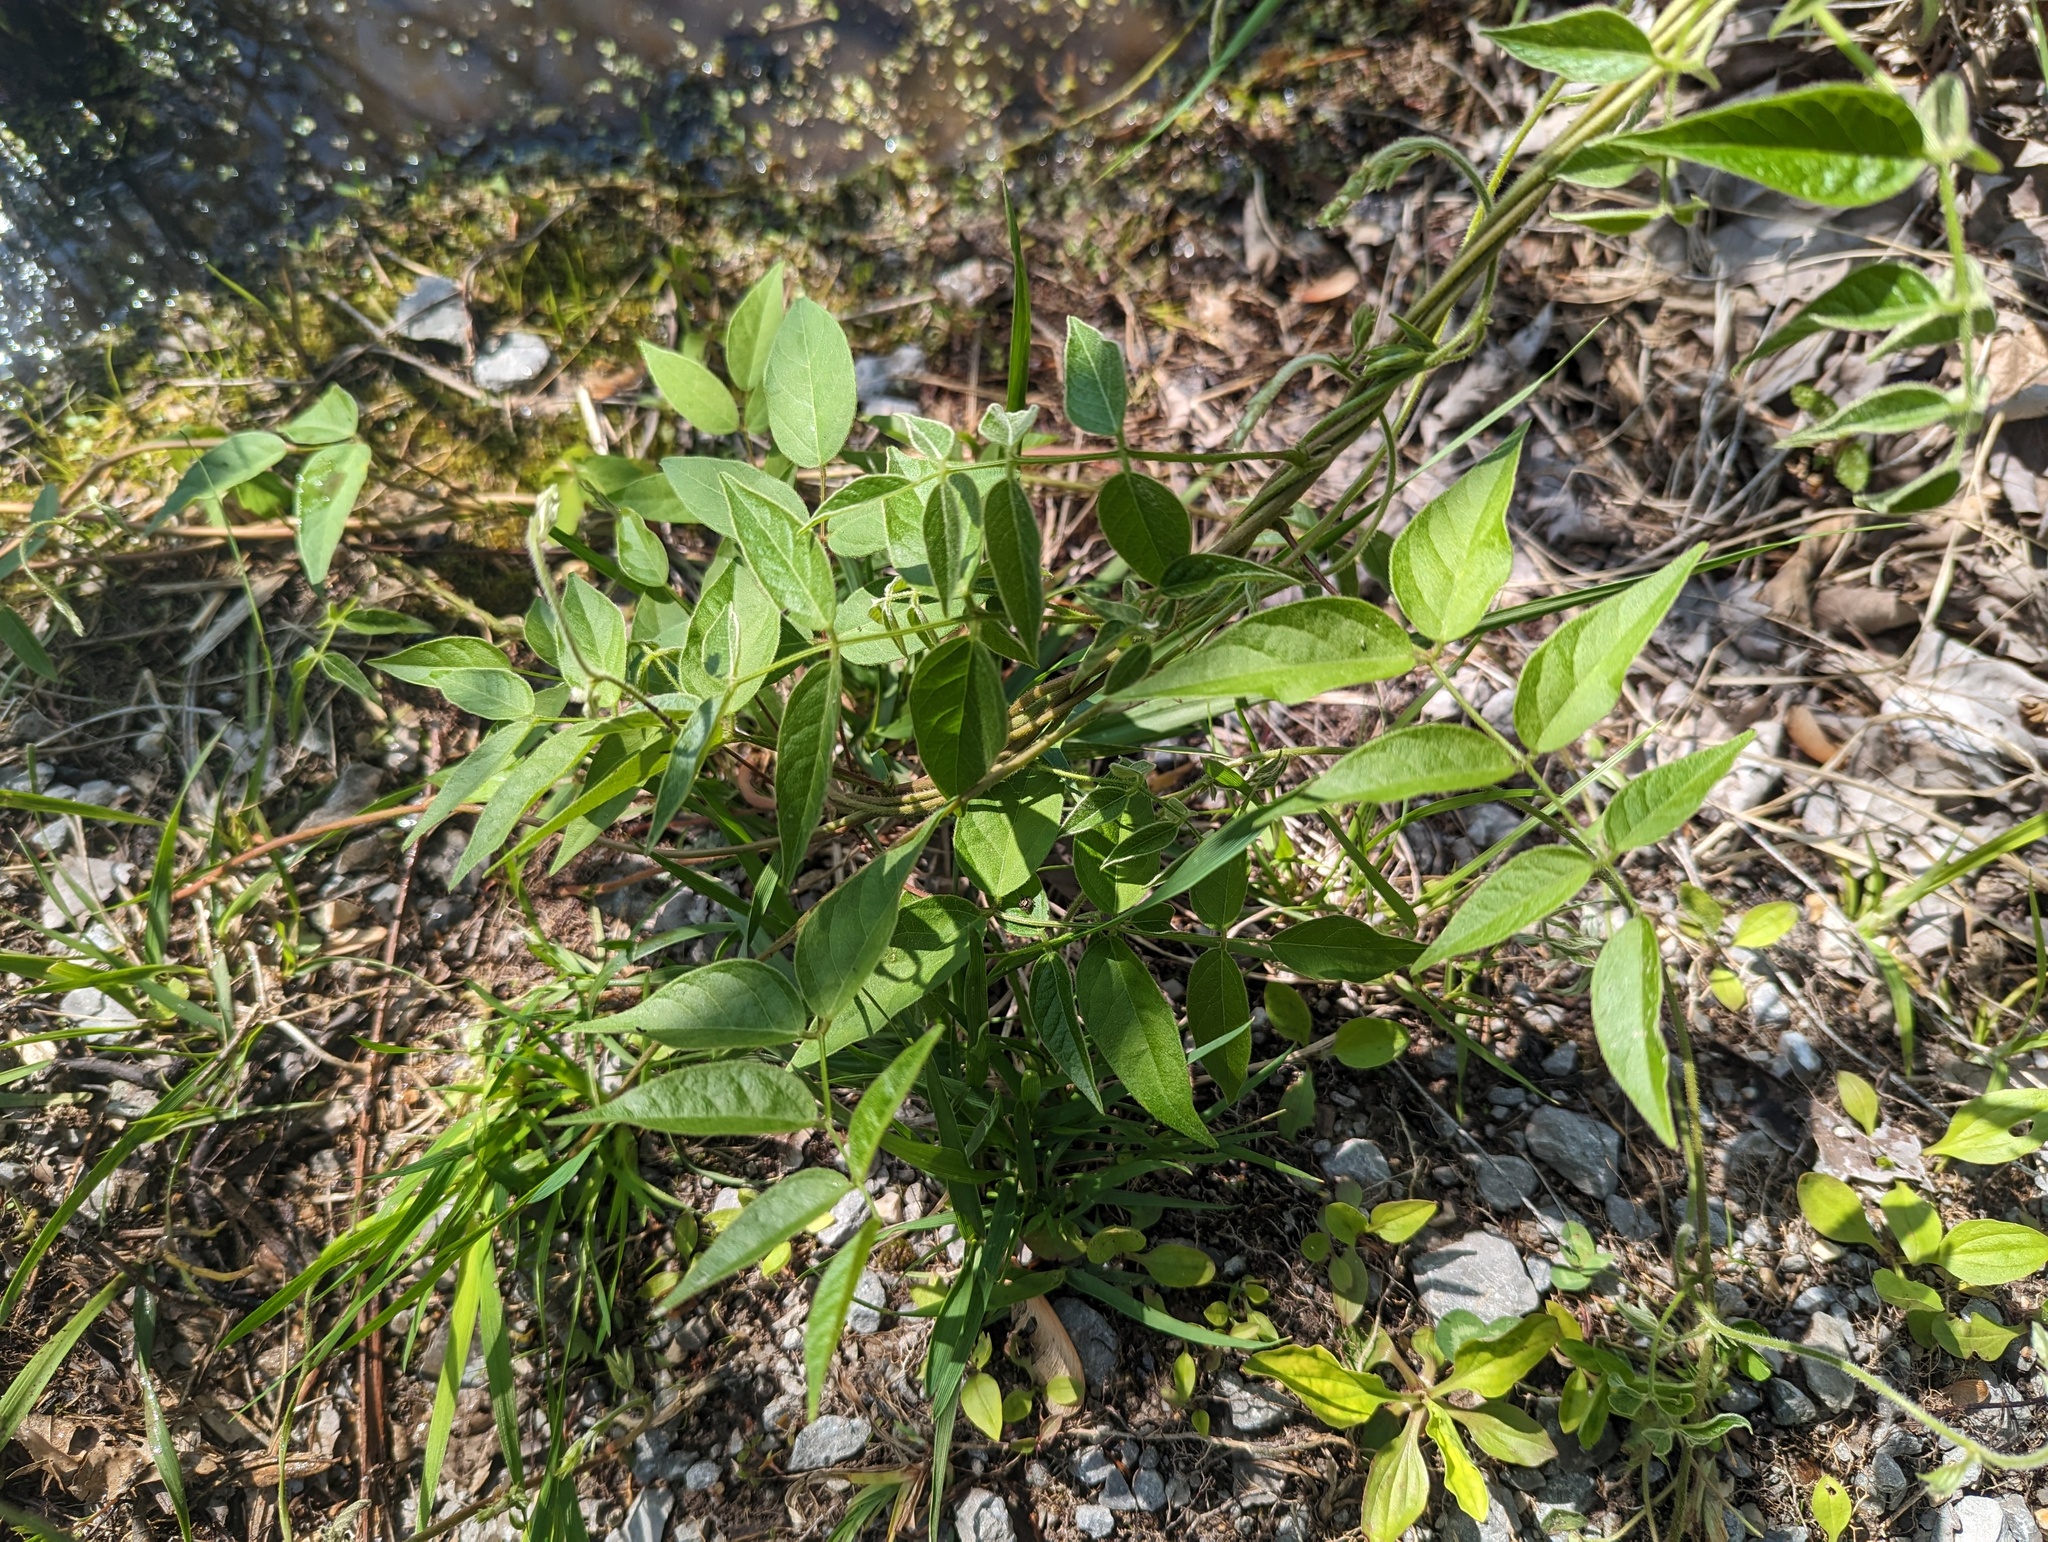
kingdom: Plantae
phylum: Tracheophyta
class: Magnoliopsida
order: Fabales
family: Fabaceae
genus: Apios
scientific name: Apios americana
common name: American potato-bean
